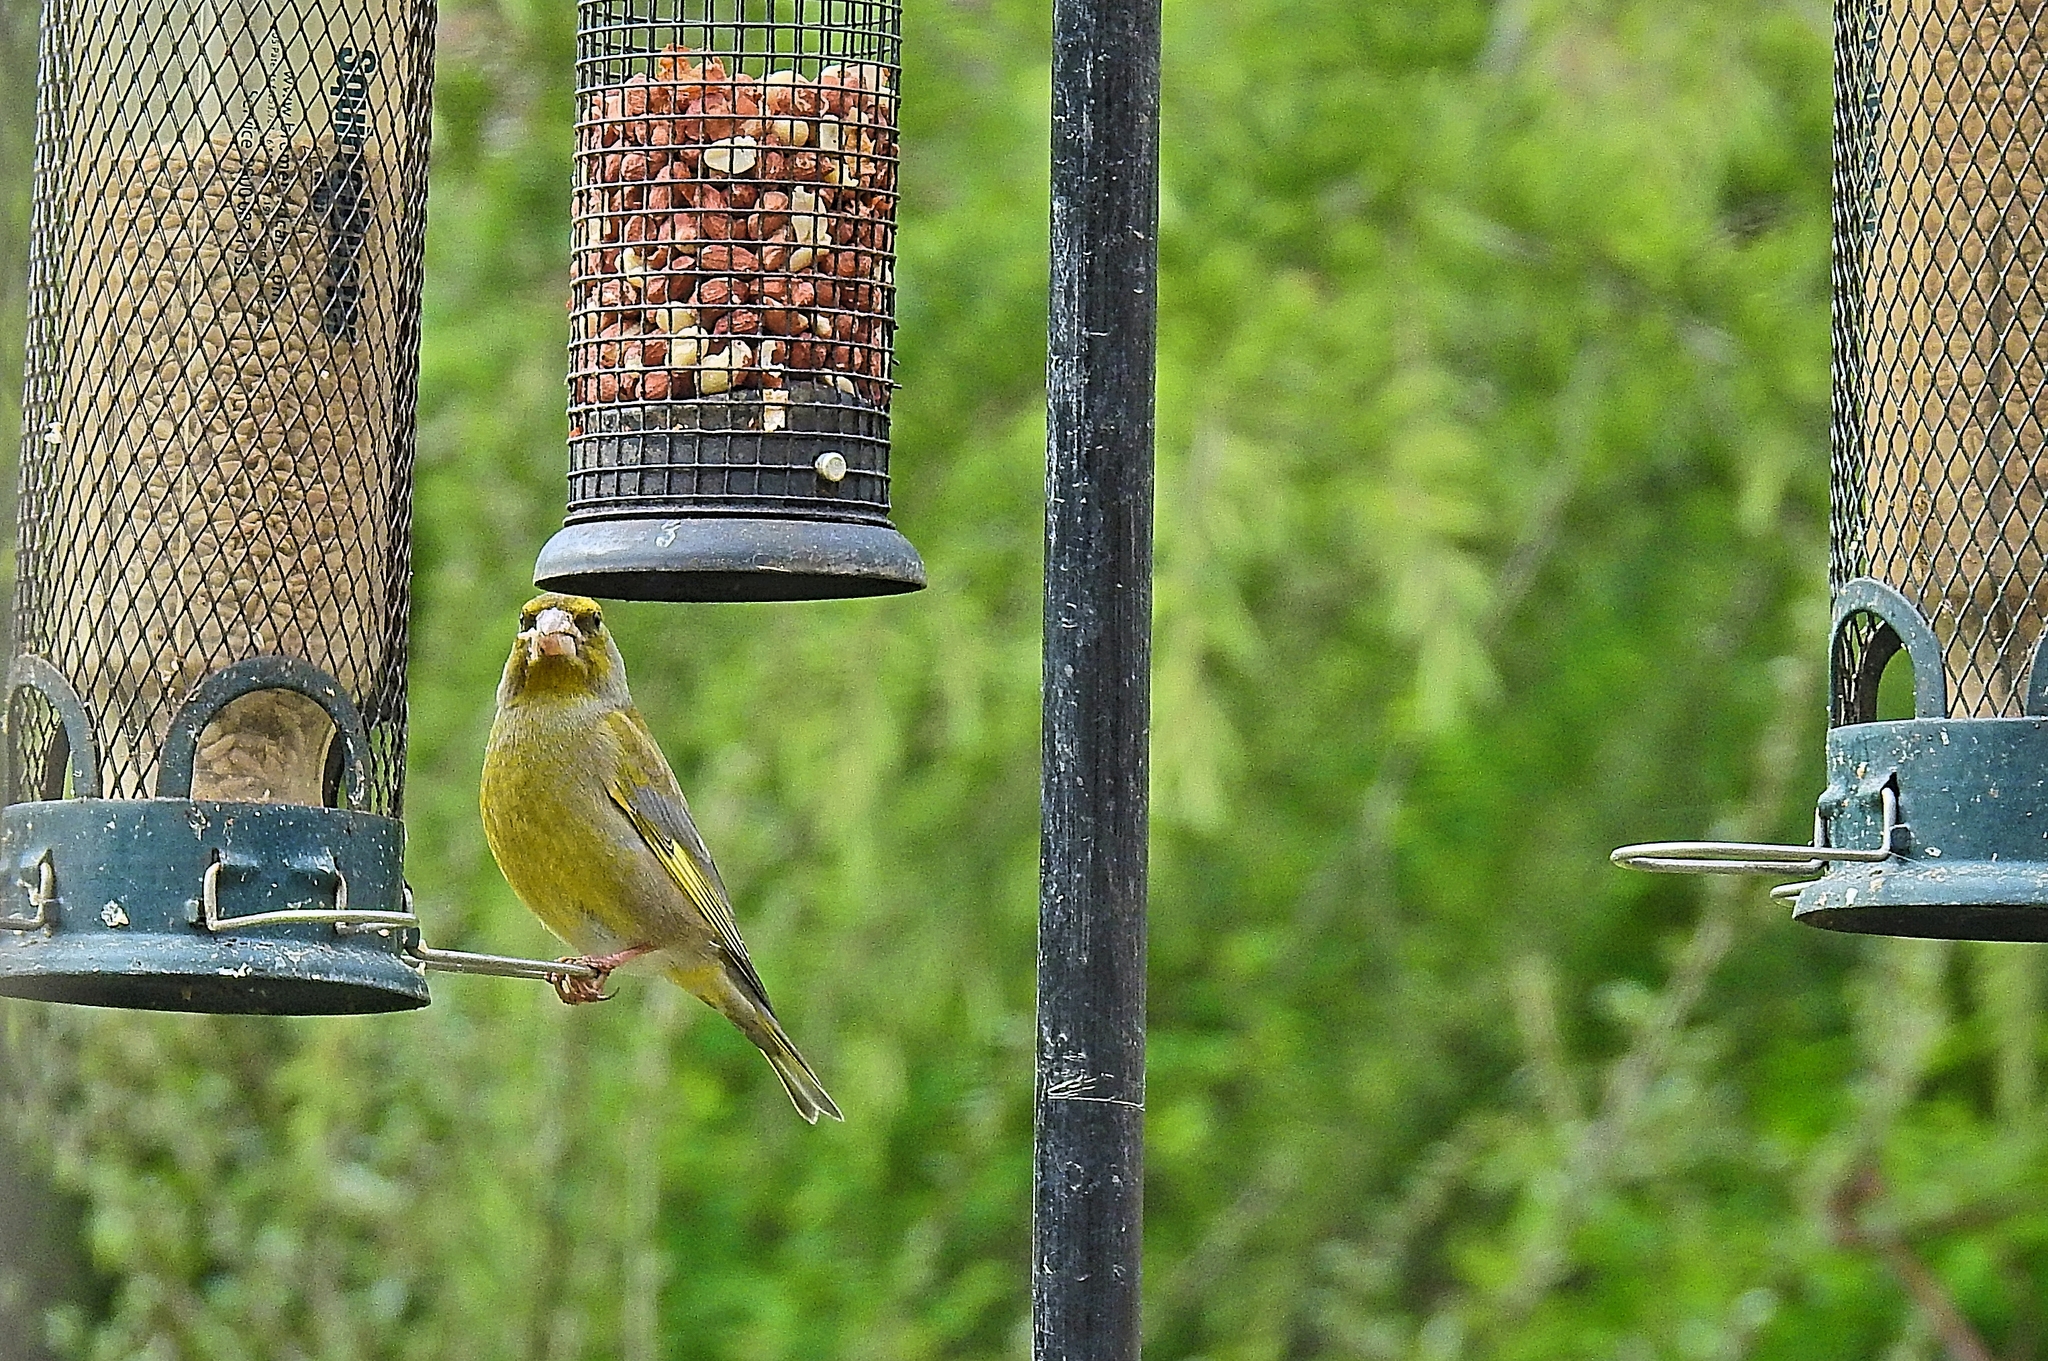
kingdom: Plantae
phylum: Tracheophyta
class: Liliopsida
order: Poales
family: Poaceae
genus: Chloris
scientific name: Chloris chloris
